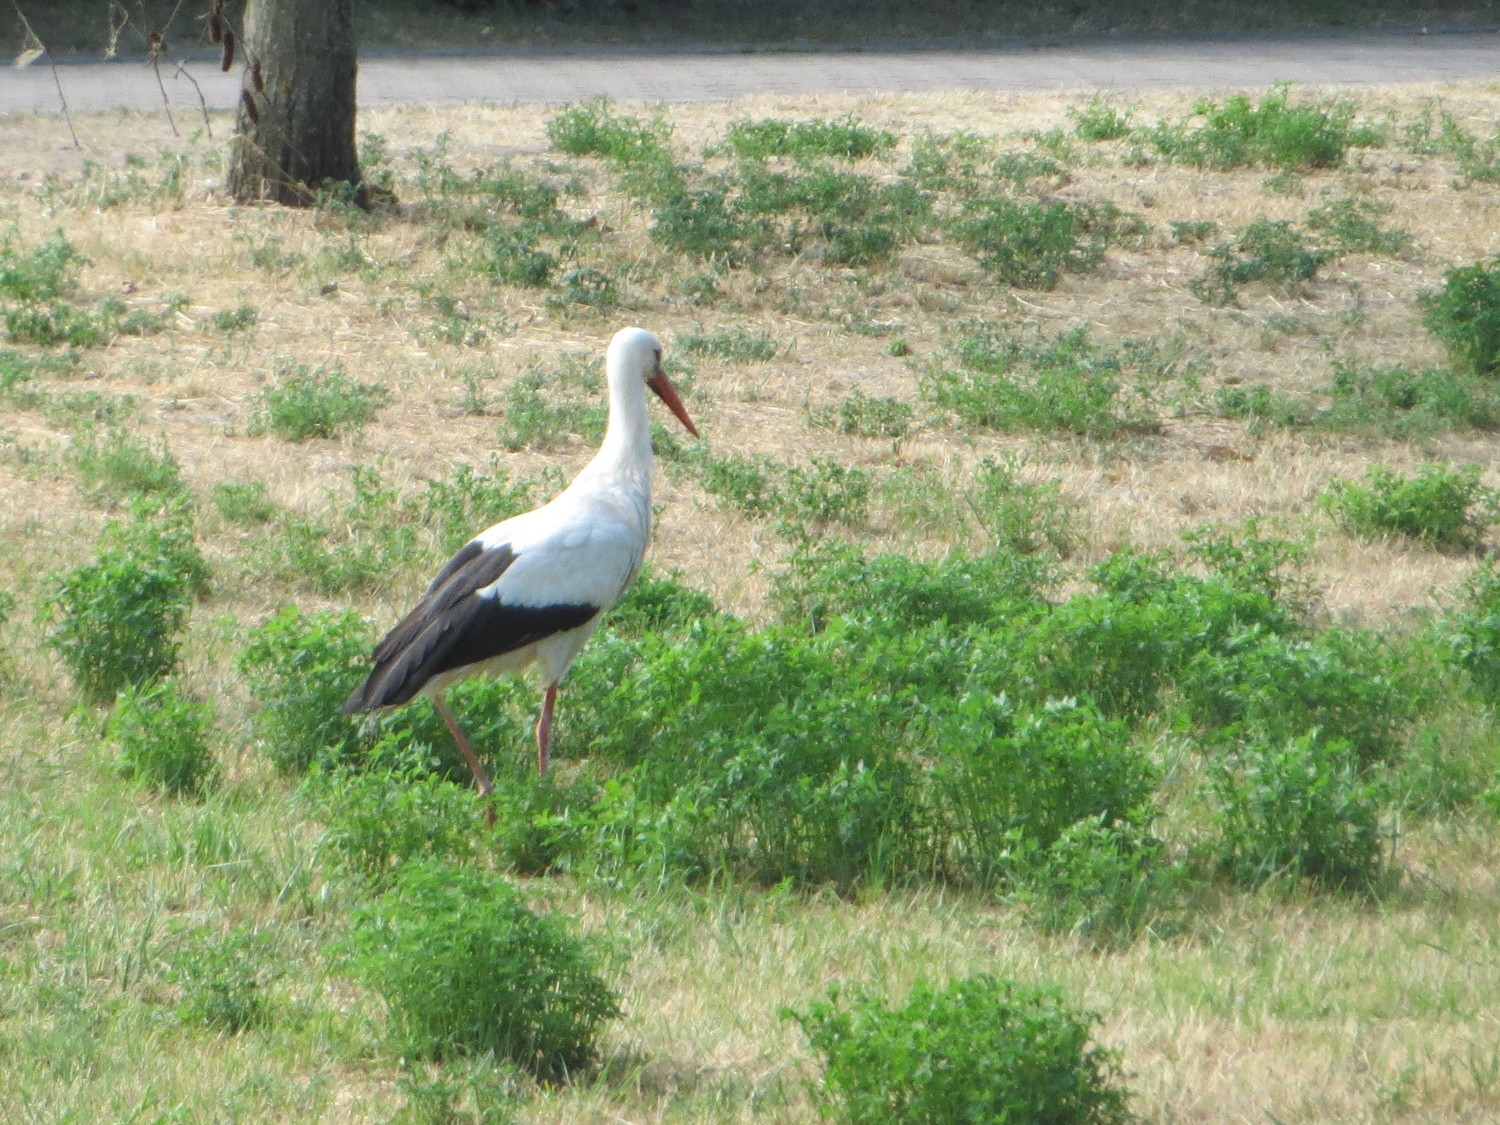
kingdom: Animalia
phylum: Chordata
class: Aves
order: Ciconiiformes
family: Ciconiidae
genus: Ciconia
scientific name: Ciconia ciconia
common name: White stork
